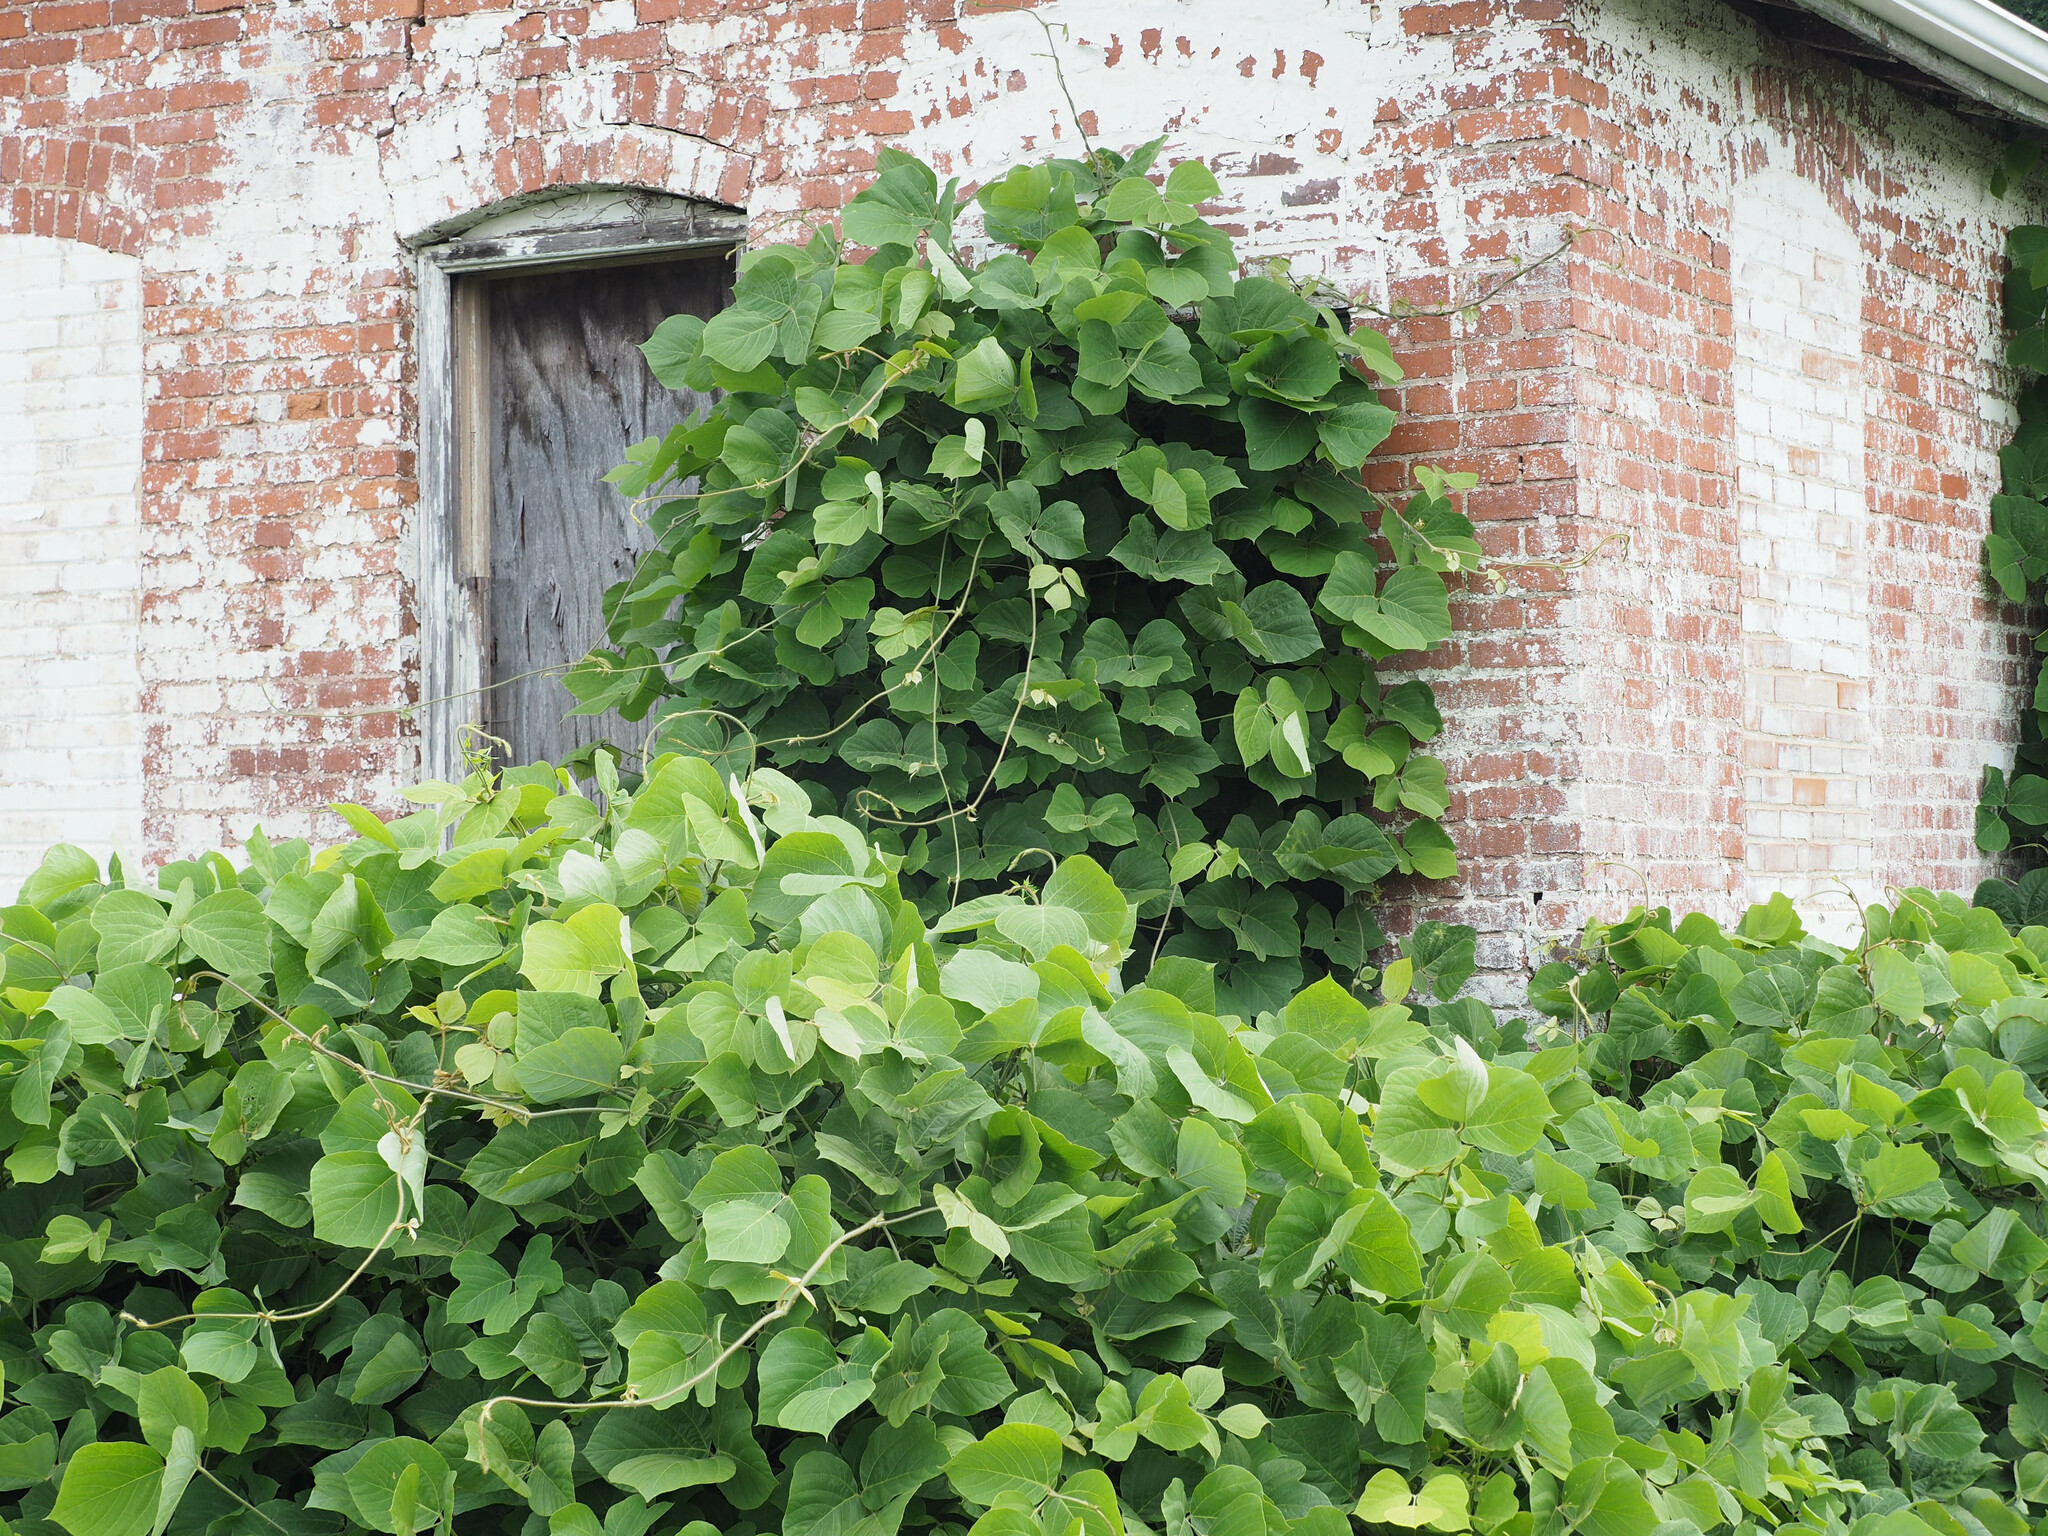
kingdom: Plantae
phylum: Tracheophyta
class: Magnoliopsida
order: Fabales
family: Fabaceae
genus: Pueraria
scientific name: Pueraria montana
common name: Kudzu
